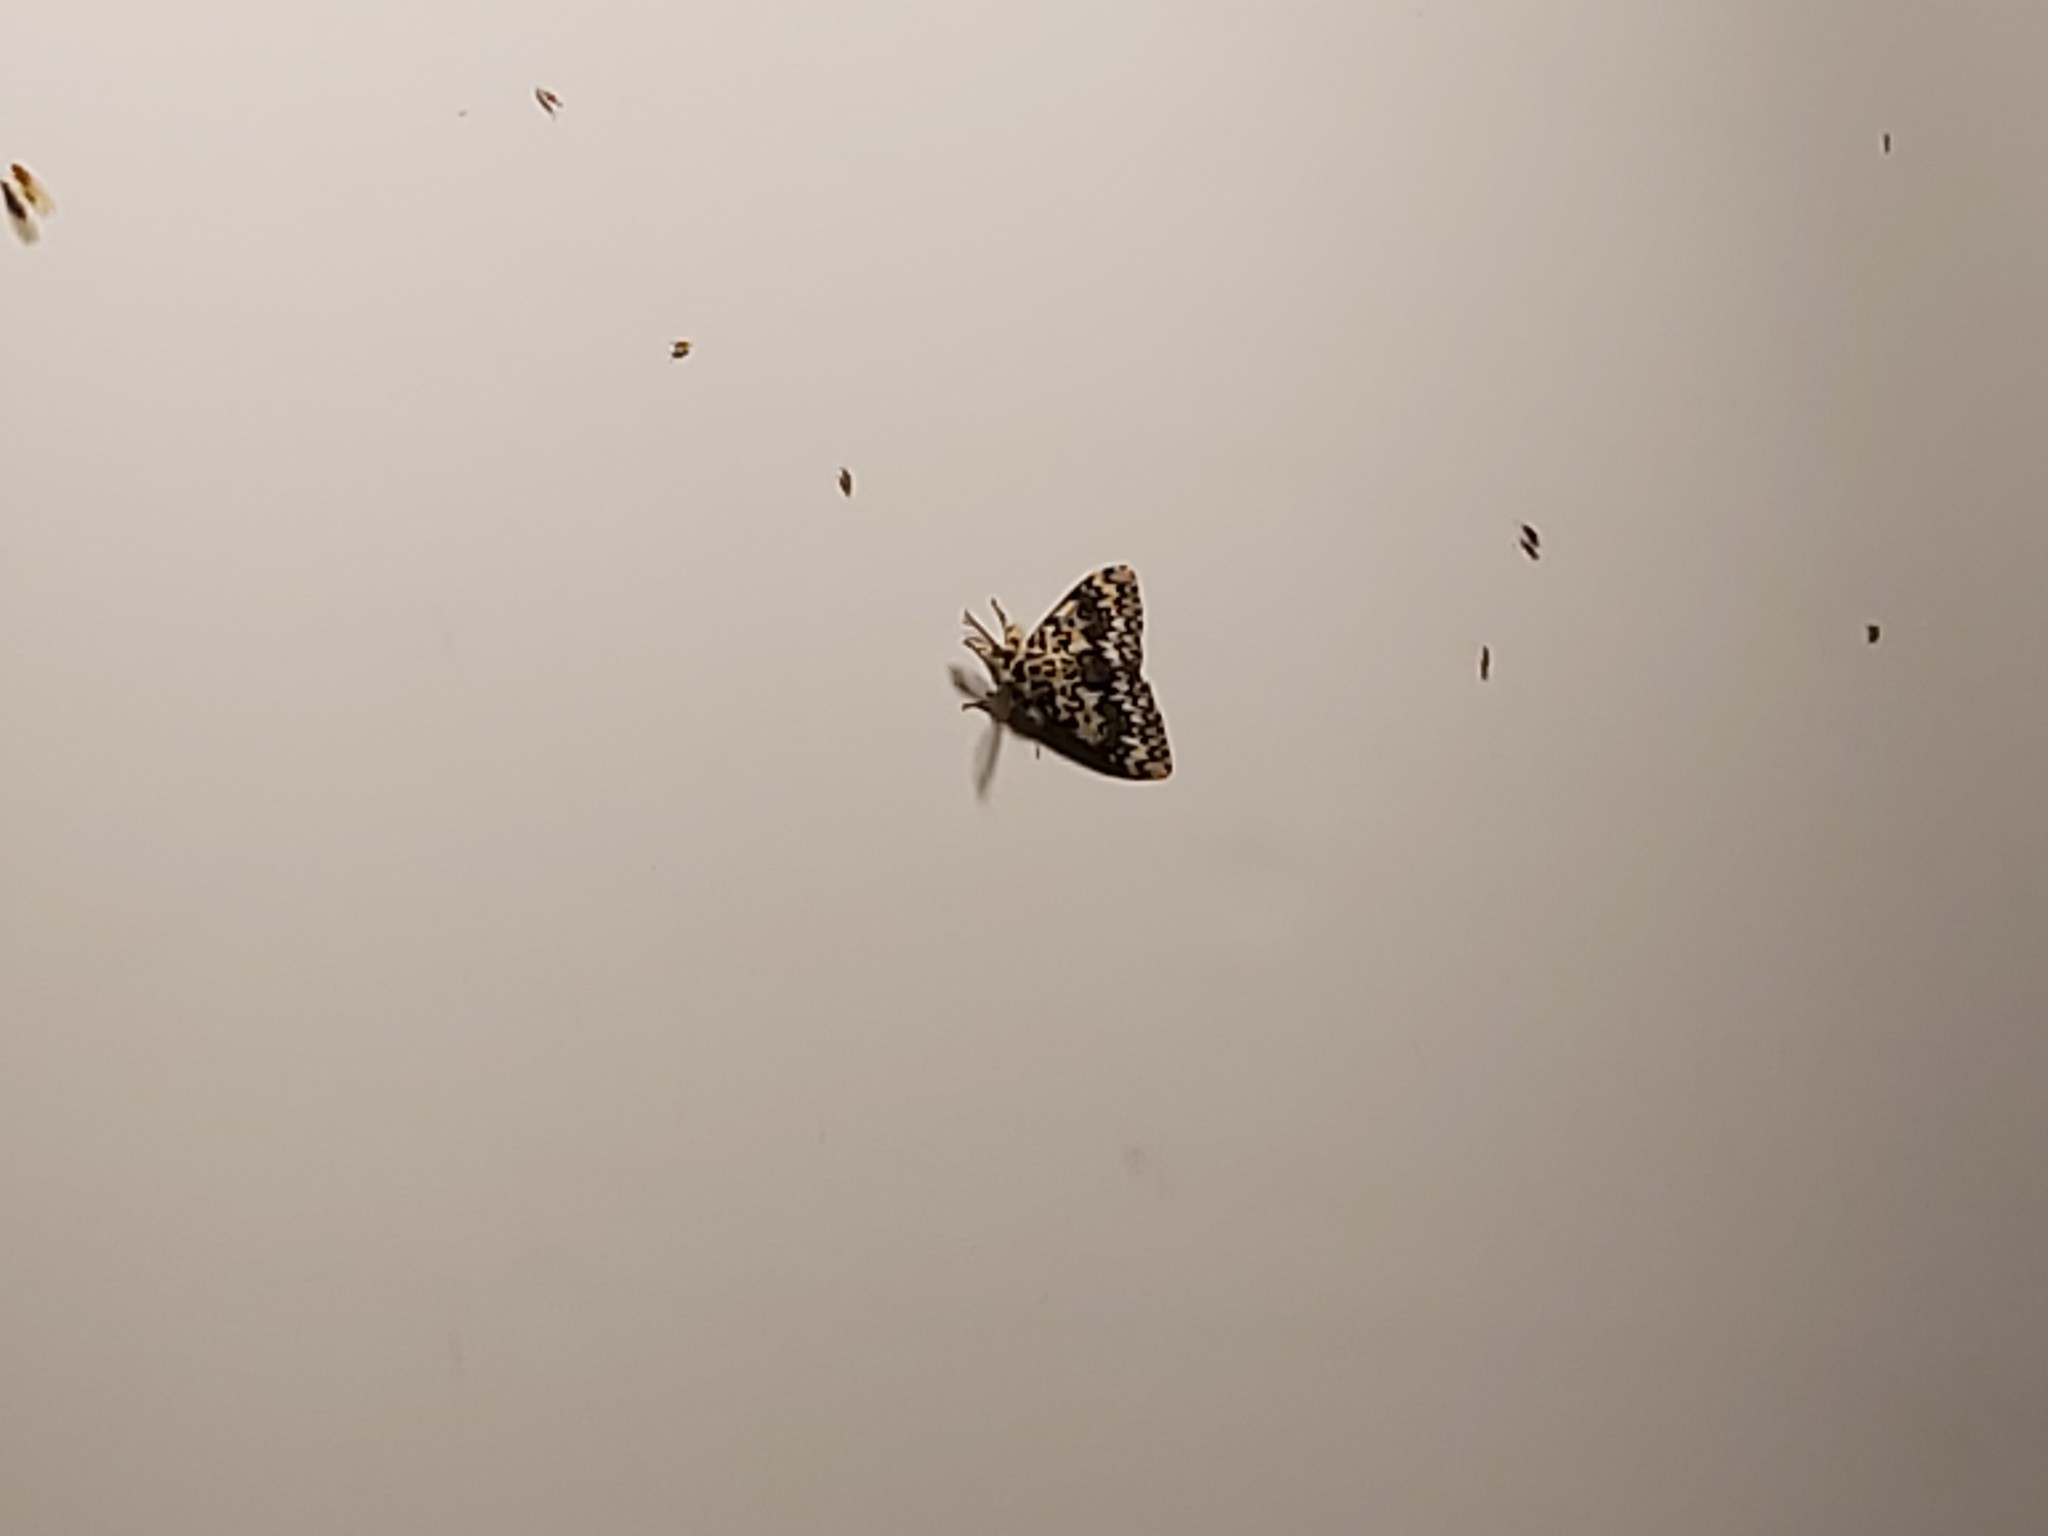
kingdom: Animalia
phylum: Arthropoda
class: Insecta
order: Lepidoptera
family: Erebidae
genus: Lymantria
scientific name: Lymantria monacha
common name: Black arches
